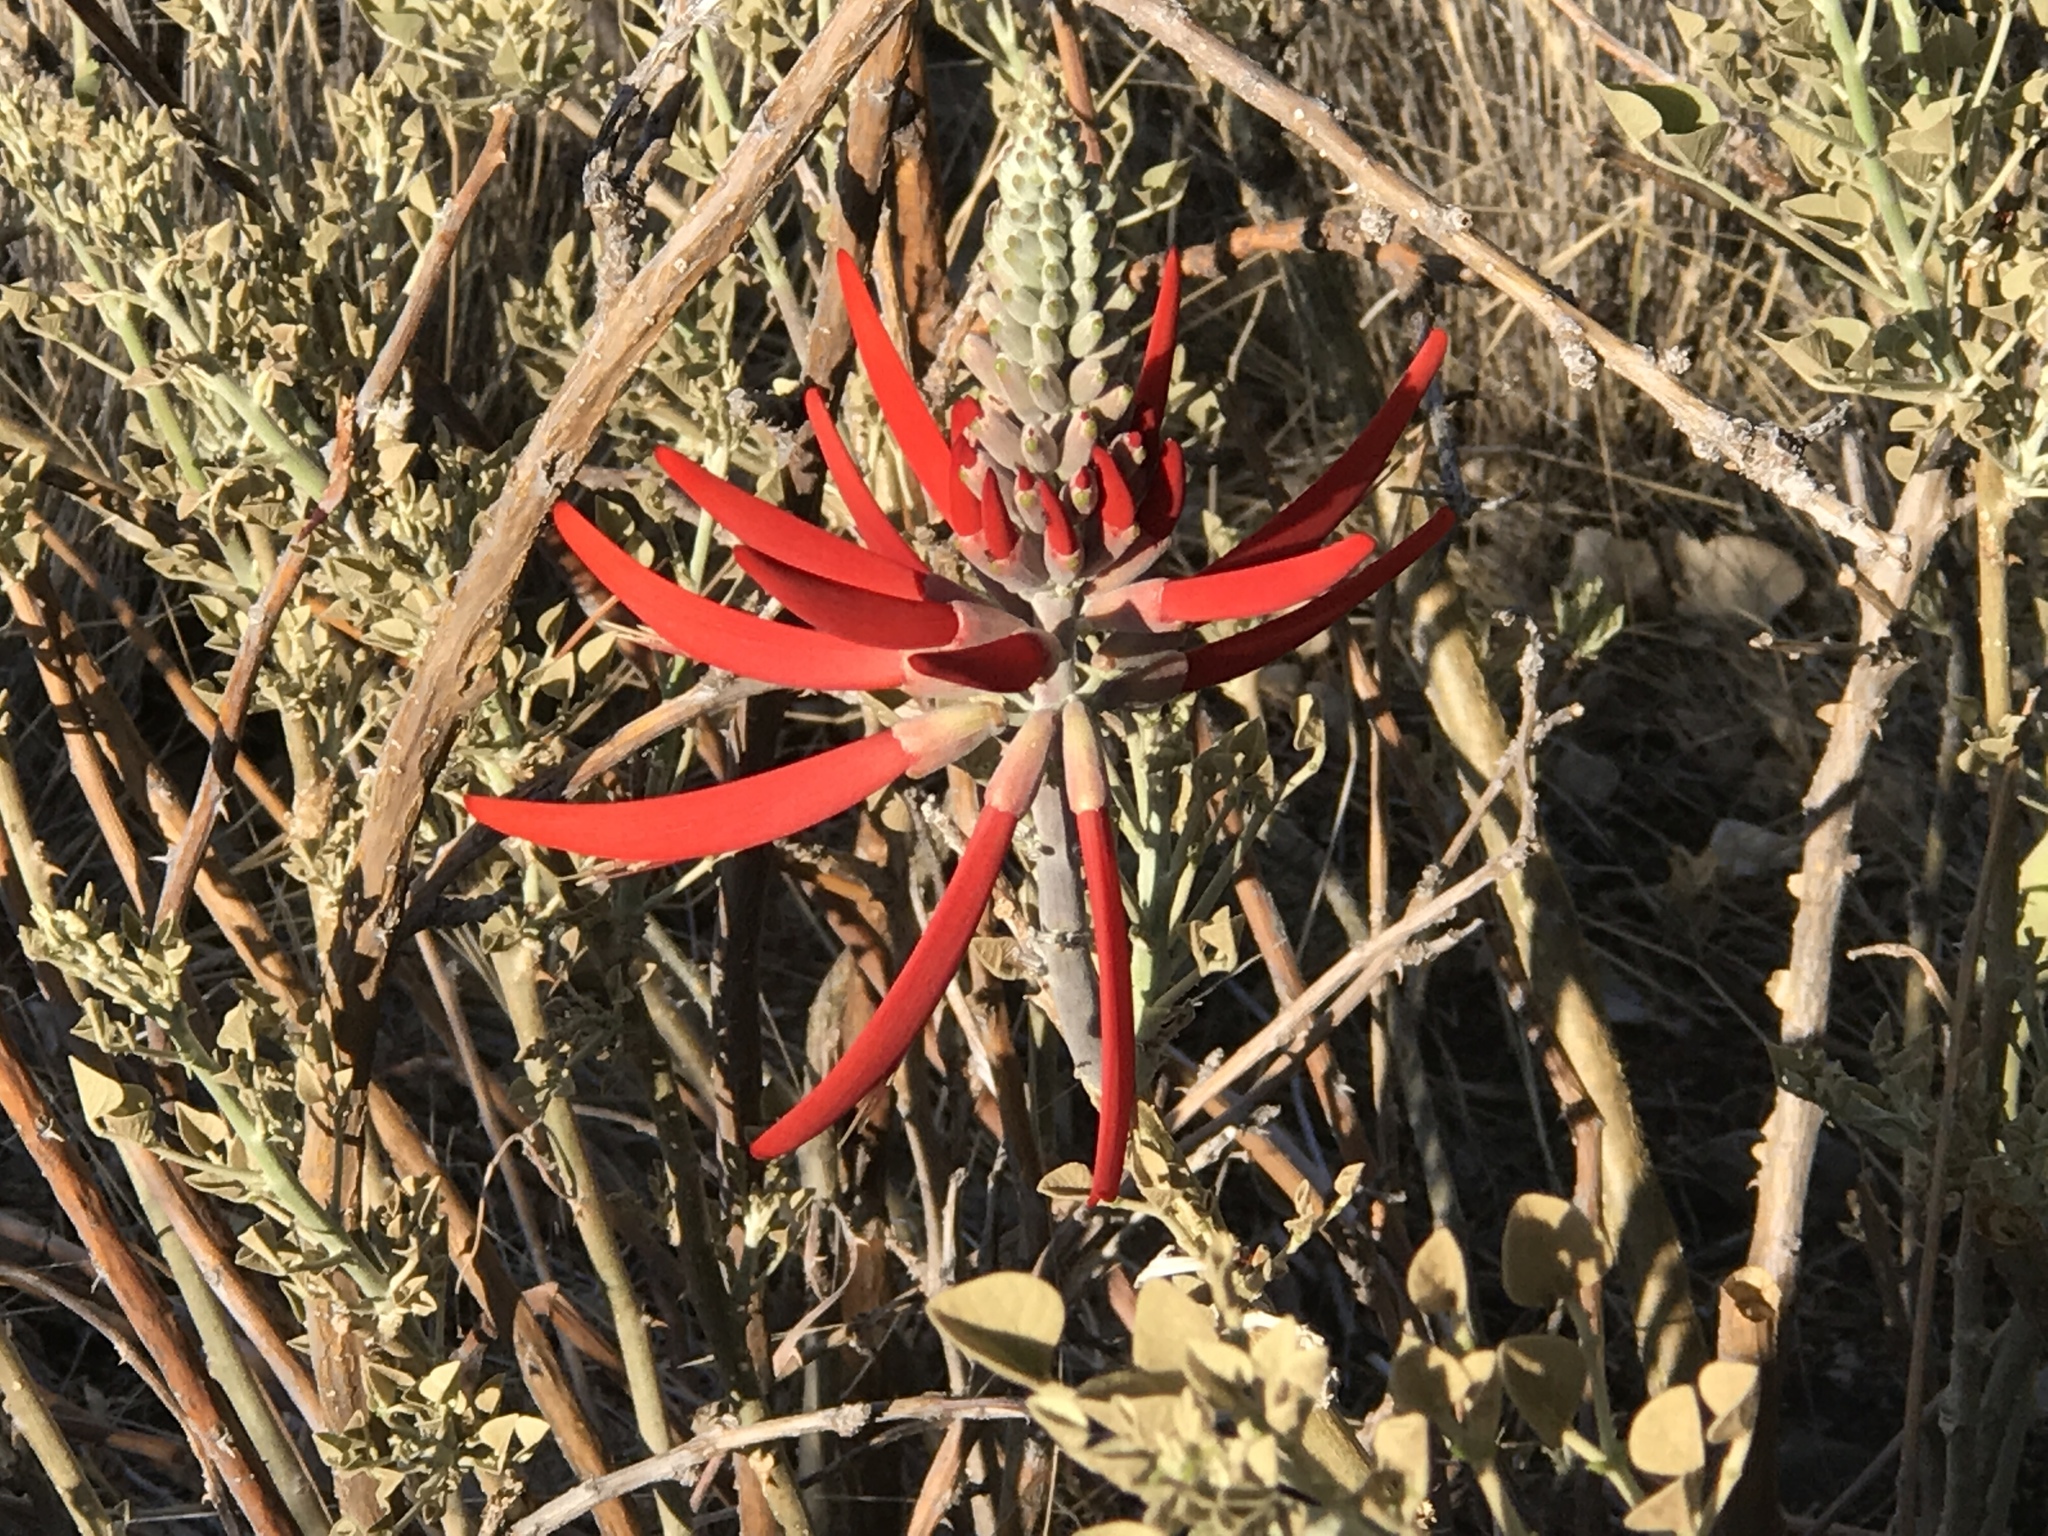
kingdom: Plantae
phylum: Tracheophyta
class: Magnoliopsida
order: Fabales
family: Fabaceae
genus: Erythrina
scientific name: Erythrina flabelliformis
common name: Chilicote
